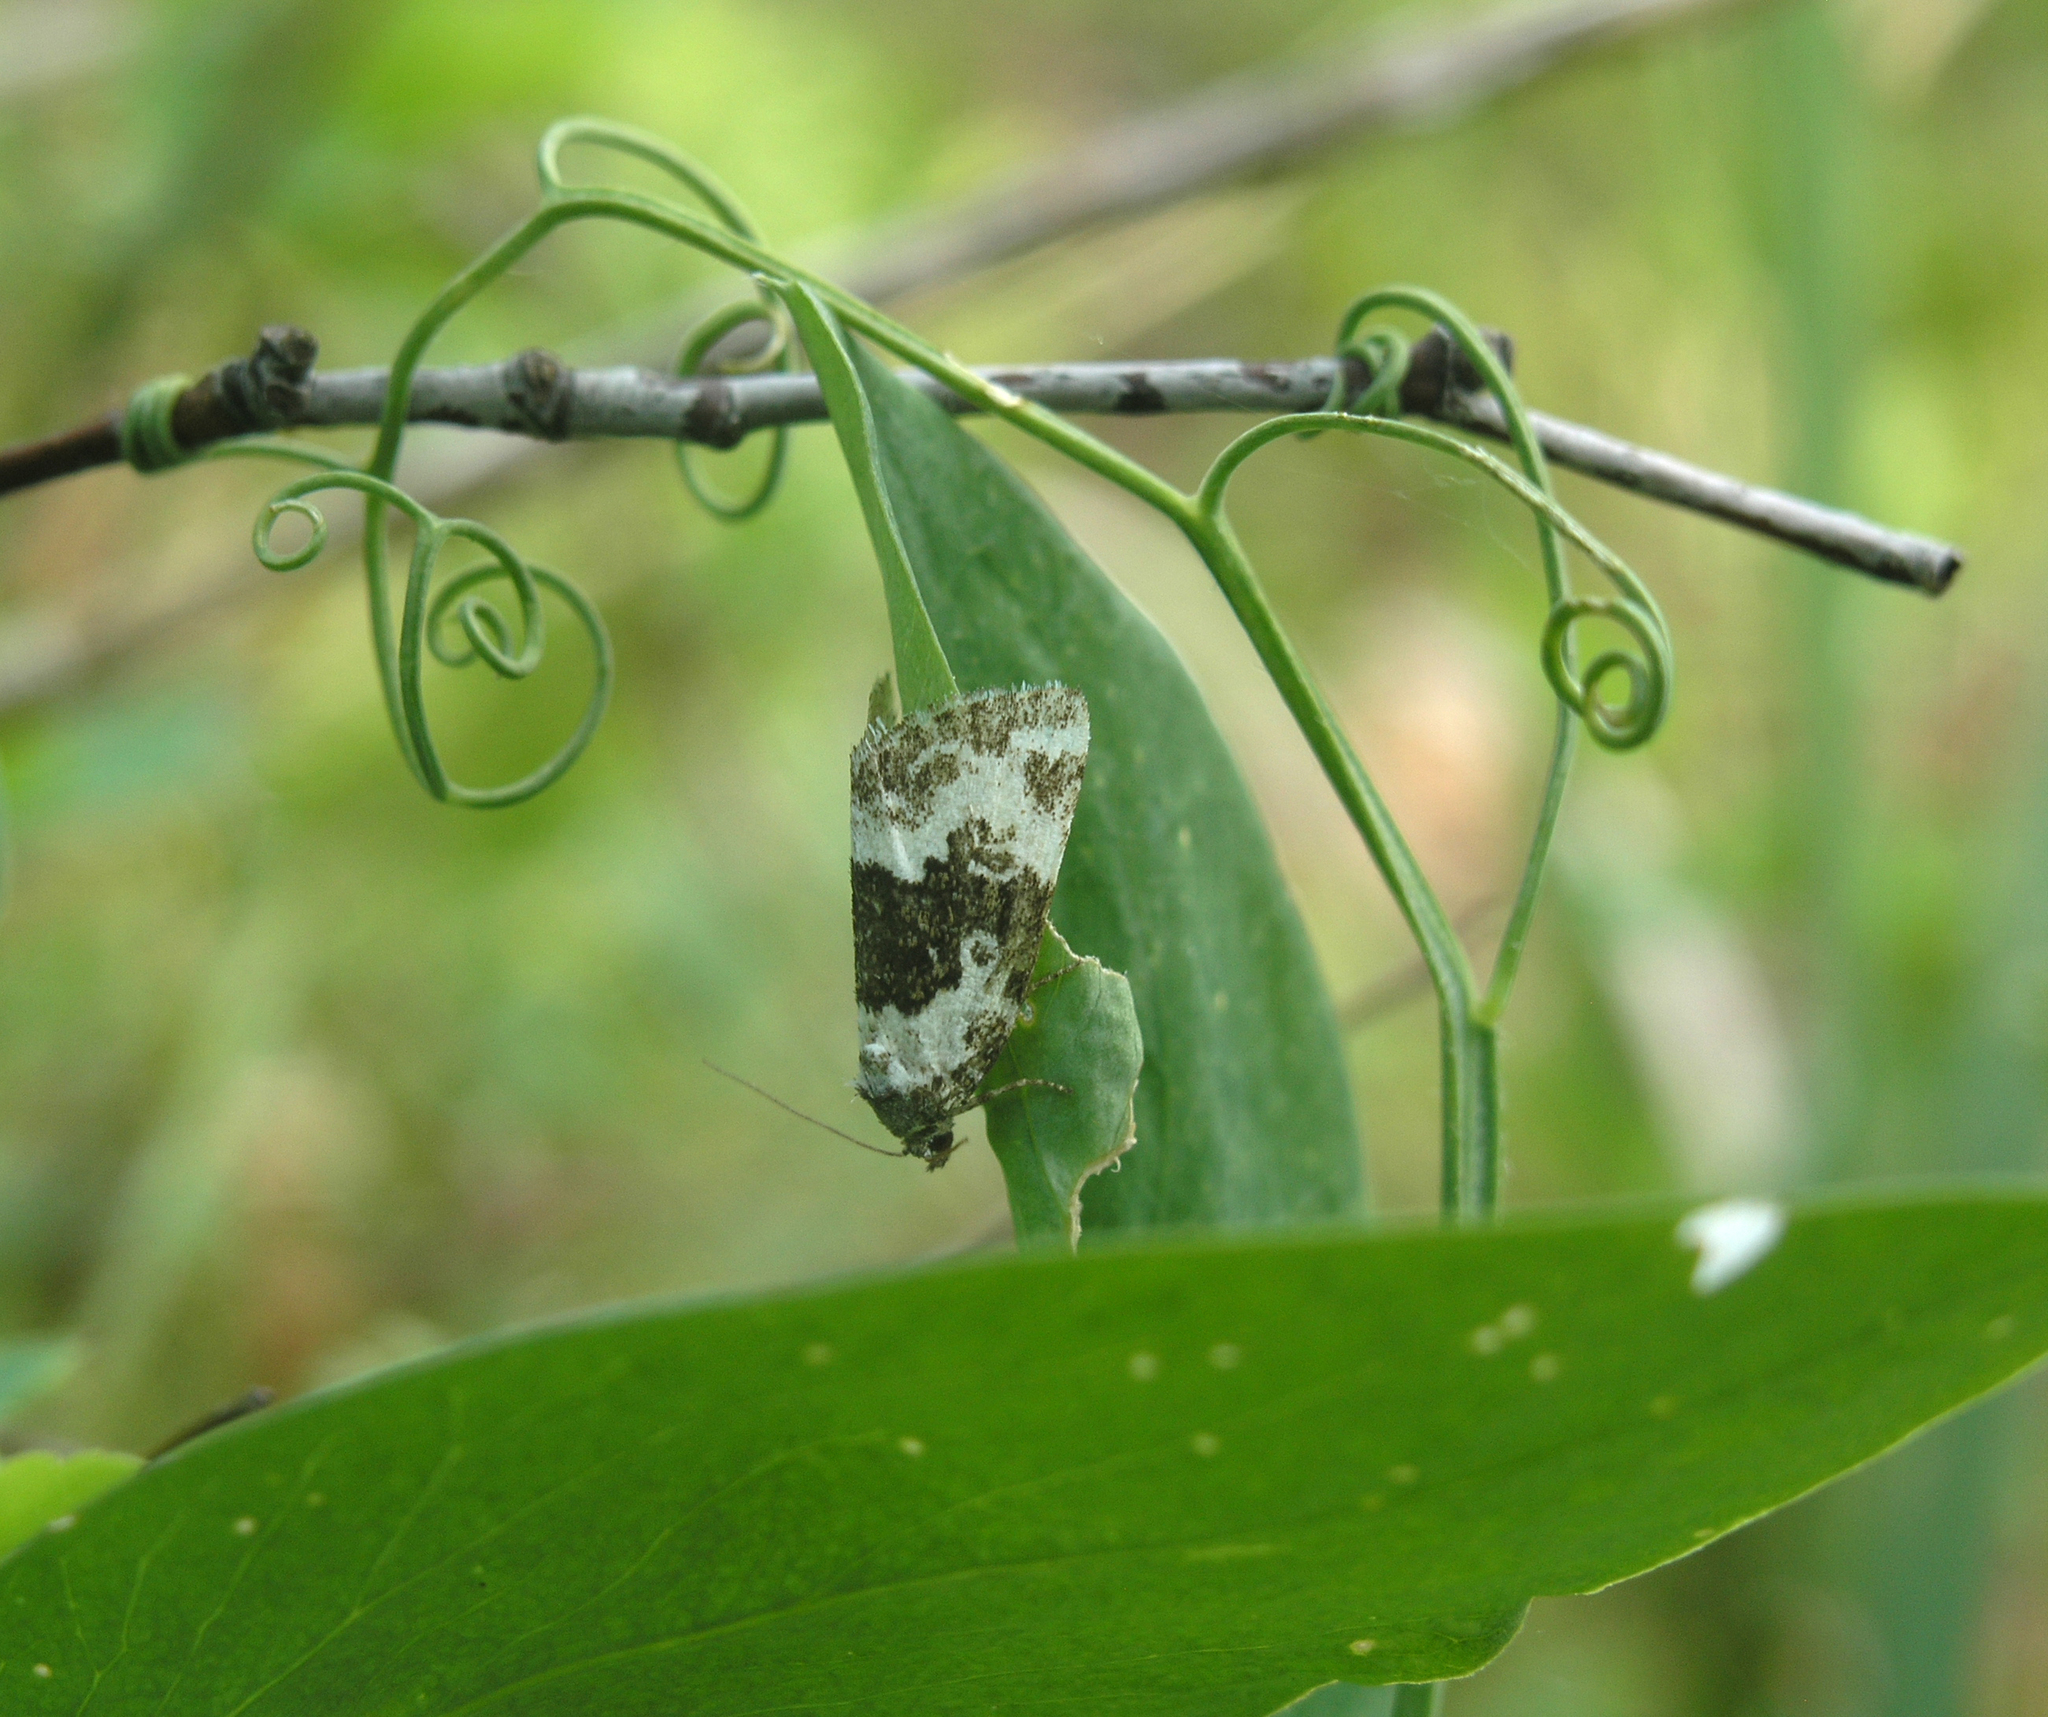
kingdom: Animalia
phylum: Arthropoda
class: Insecta
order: Lepidoptera
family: Noctuidae
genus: Deltote
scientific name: Deltote deceptoria
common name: Pretty marbled
